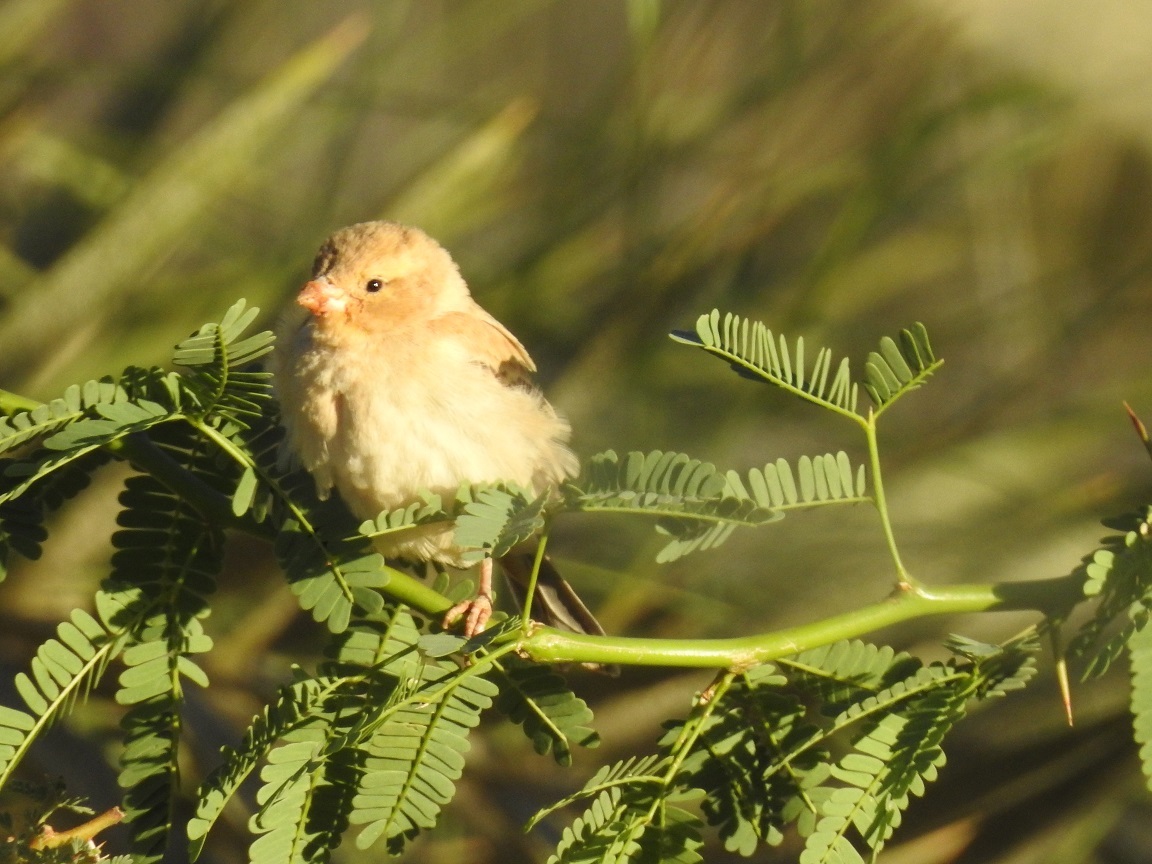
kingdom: Animalia
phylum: Chordata
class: Aves
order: Passeriformes
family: Passeridae
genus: Passer
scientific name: Passer luteus
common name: Sudan golden sparrow
